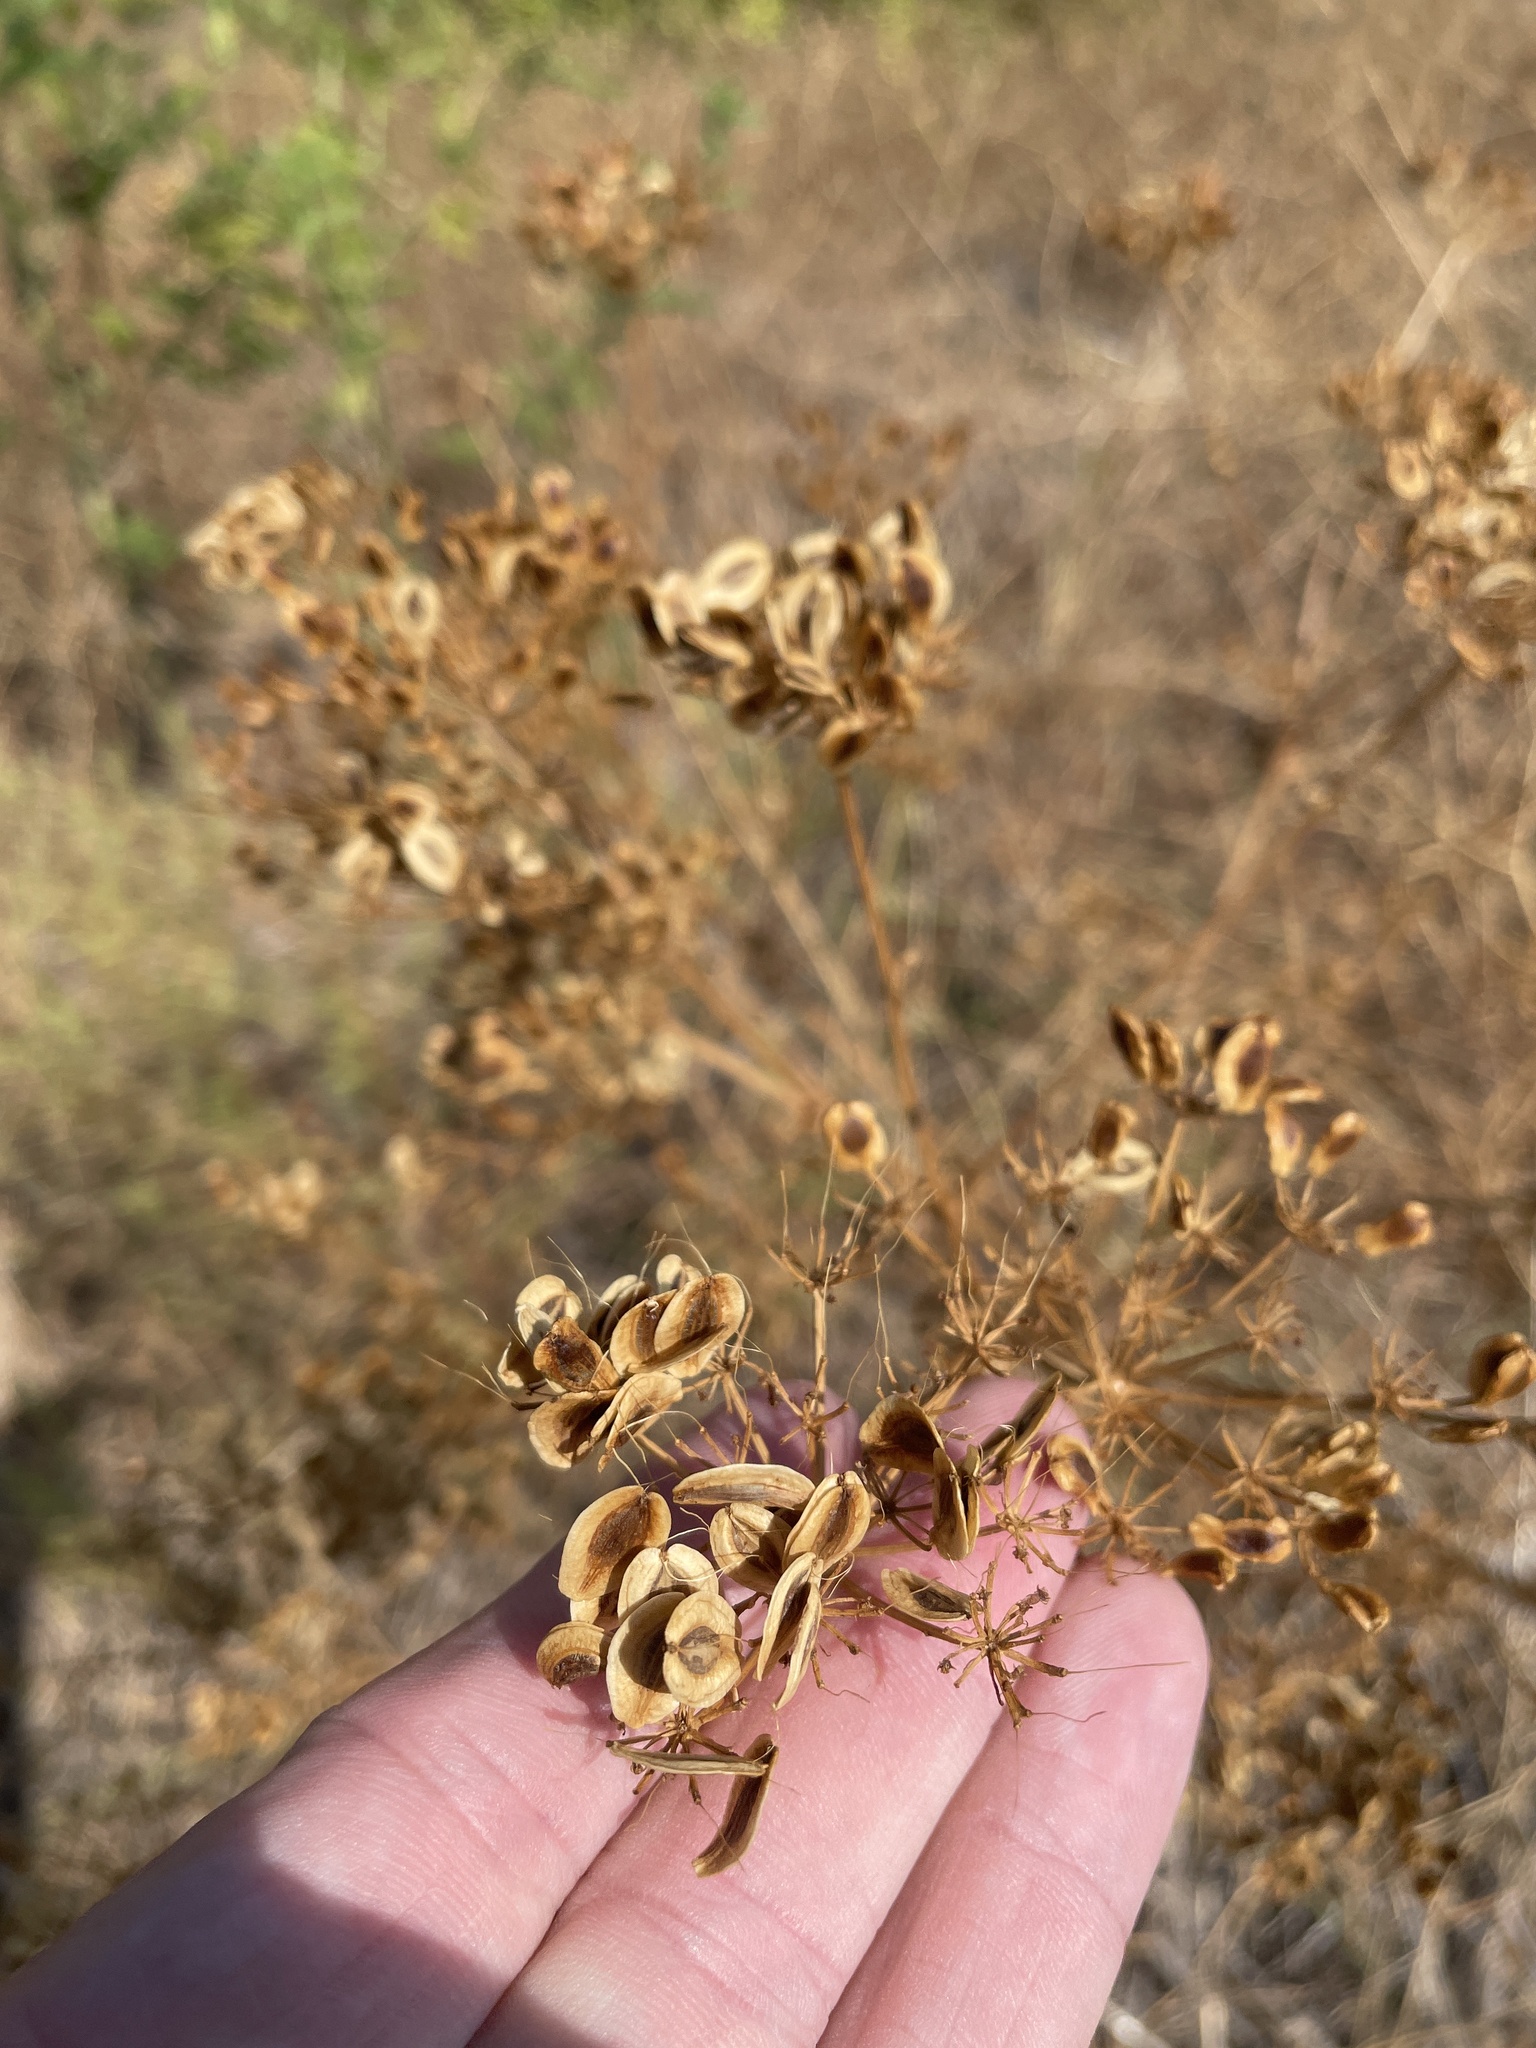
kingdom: Plantae
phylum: Tracheophyta
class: Magnoliopsida
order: Apiales
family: Apiaceae
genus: Polytaenia
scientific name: Polytaenia texana
